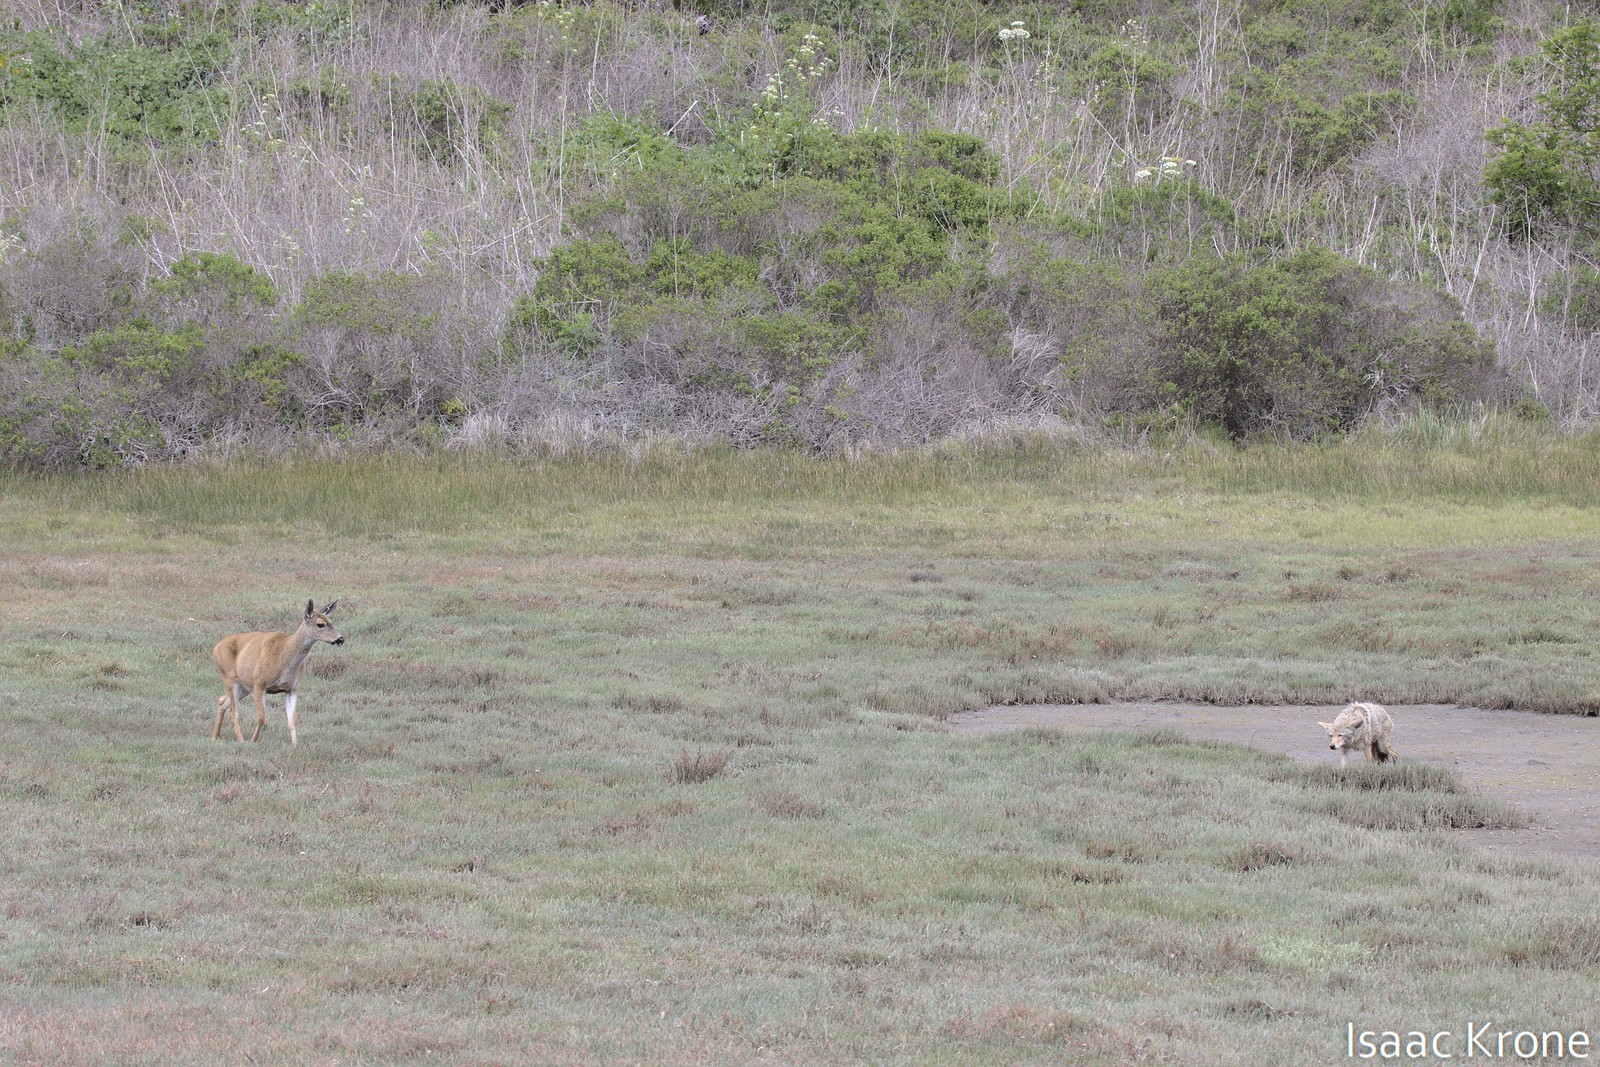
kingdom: Animalia
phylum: Chordata
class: Mammalia
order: Carnivora
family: Canidae
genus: Canis
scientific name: Canis latrans
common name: Coyote
